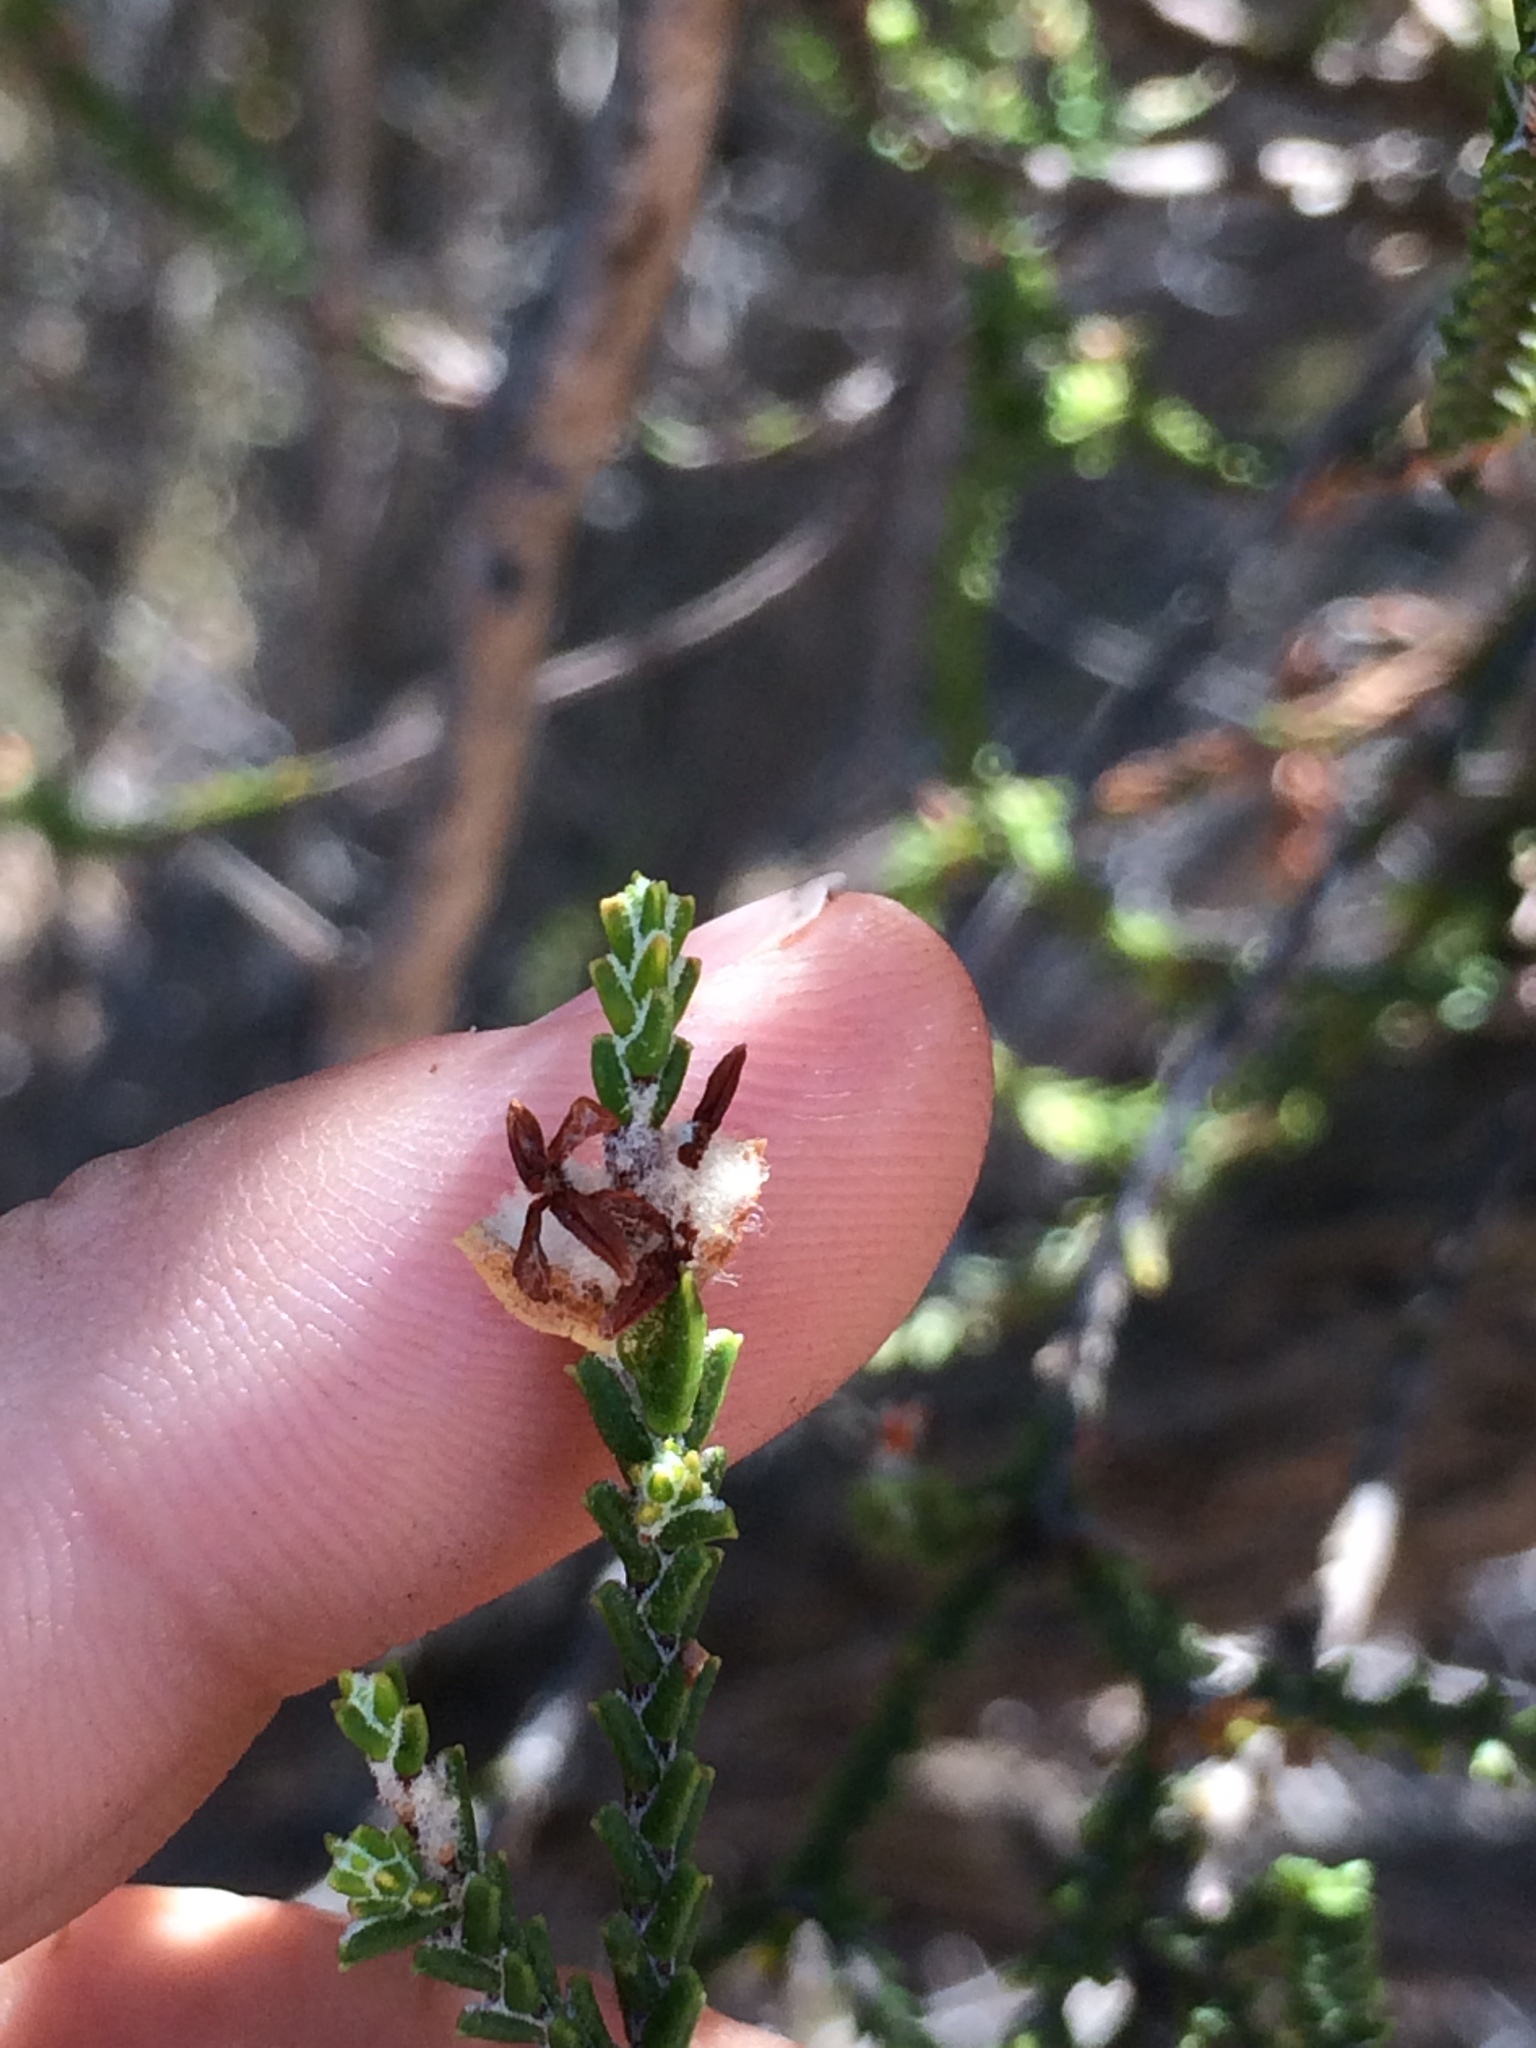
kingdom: Plantae
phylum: Tracheophyta
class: Magnoliopsida
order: Malvales
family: Thymelaeaceae
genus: Passerina
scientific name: Passerina truncata
